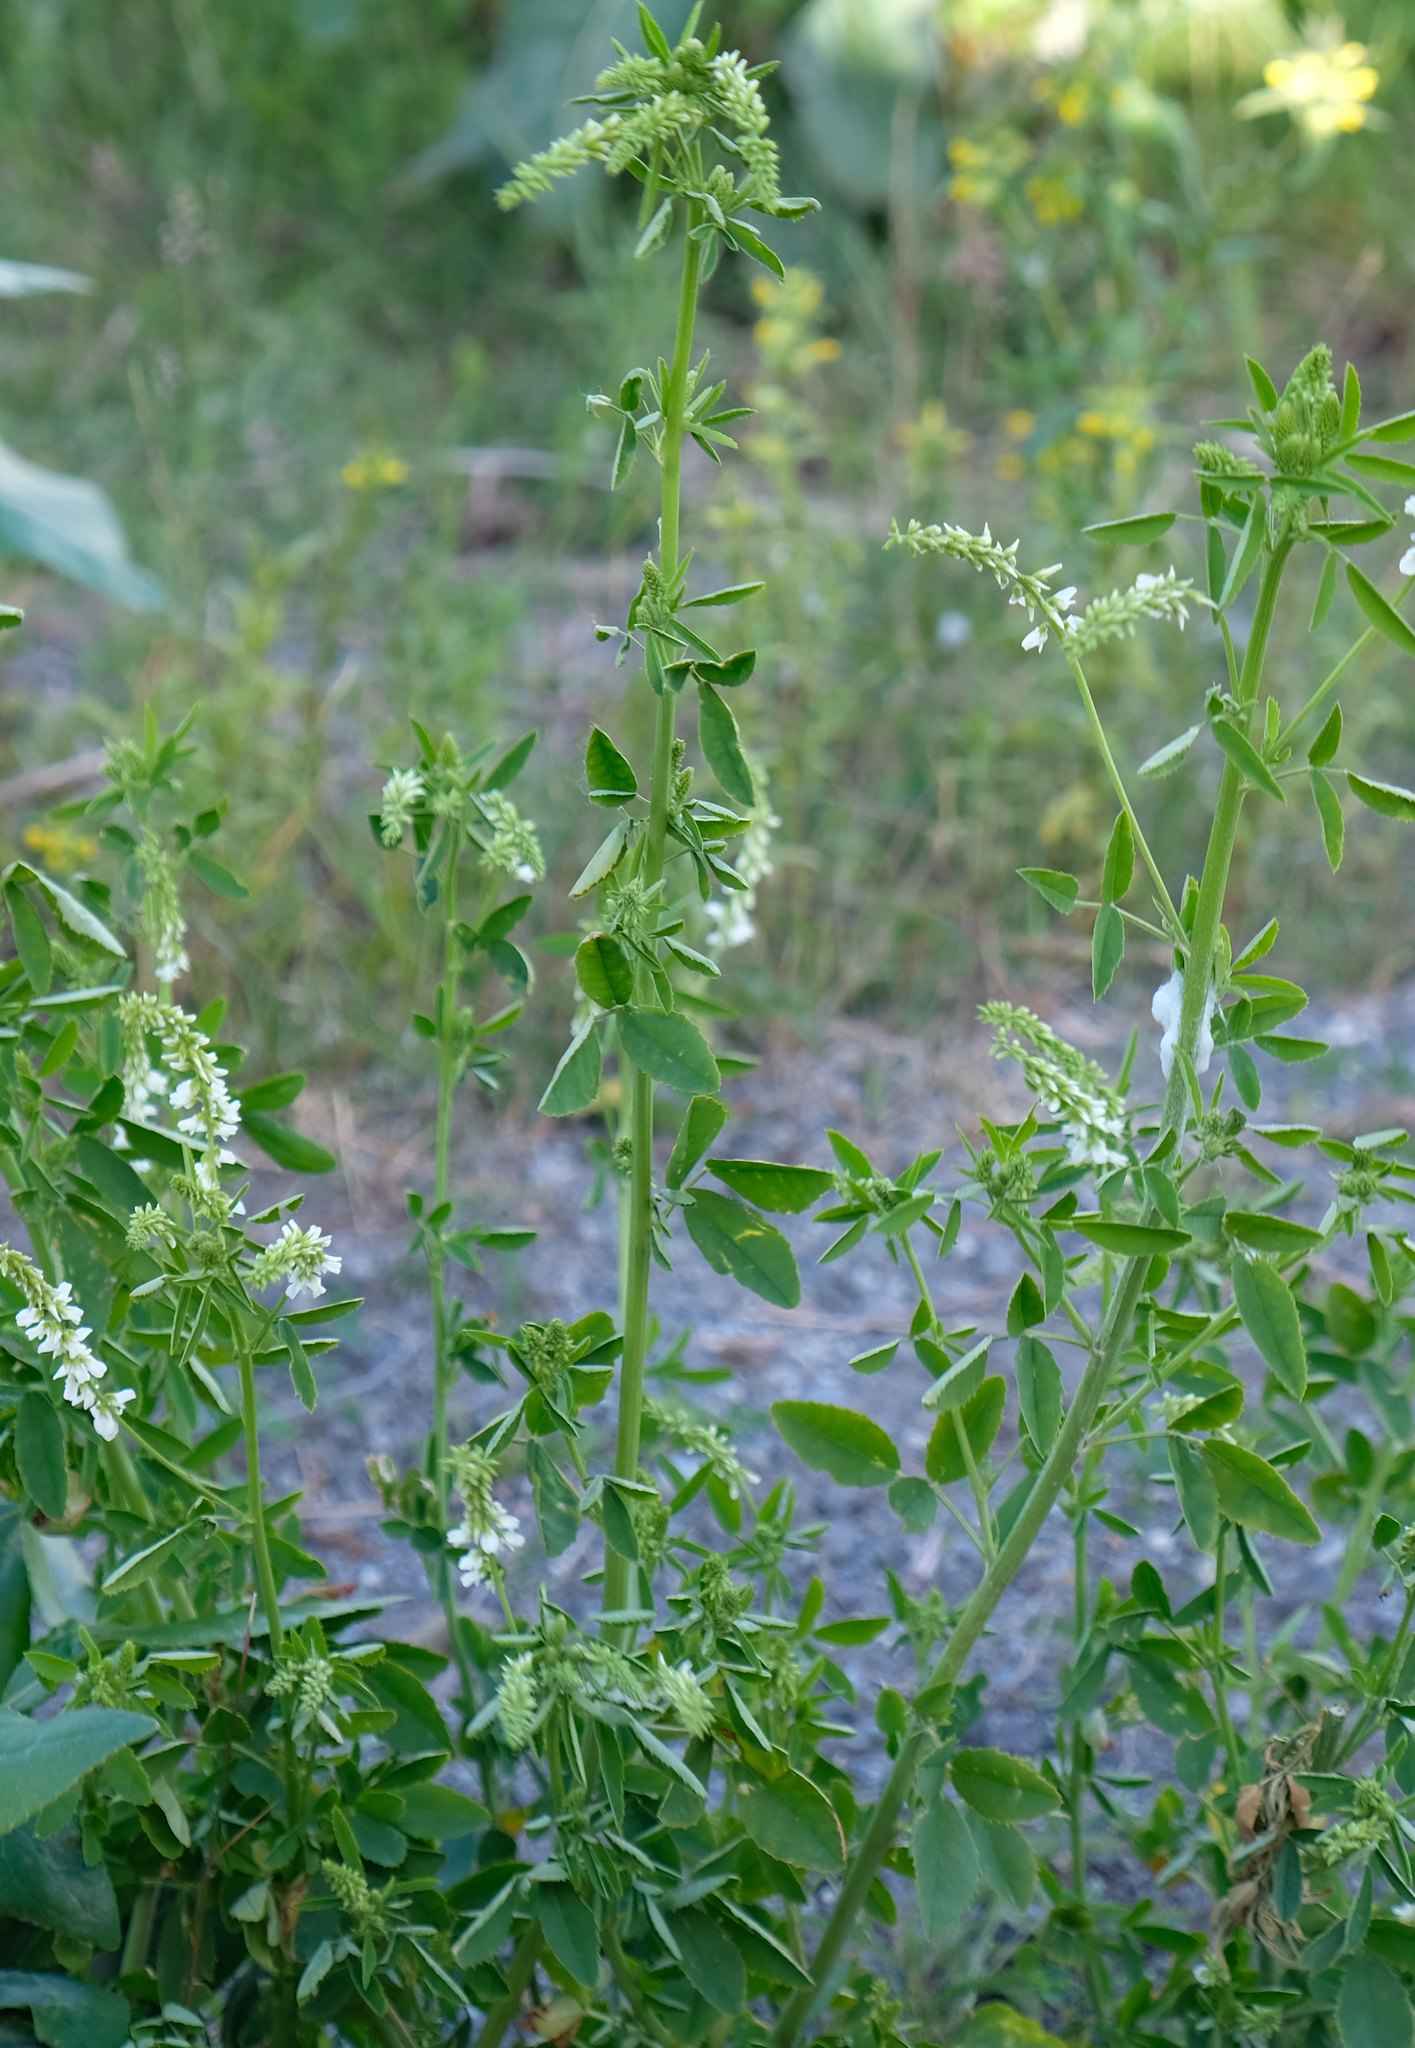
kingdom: Plantae
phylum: Tracheophyta
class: Magnoliopsida
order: Fabales
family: Fabaceae
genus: Melilotus
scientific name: Melilotus albus
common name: White melilot
